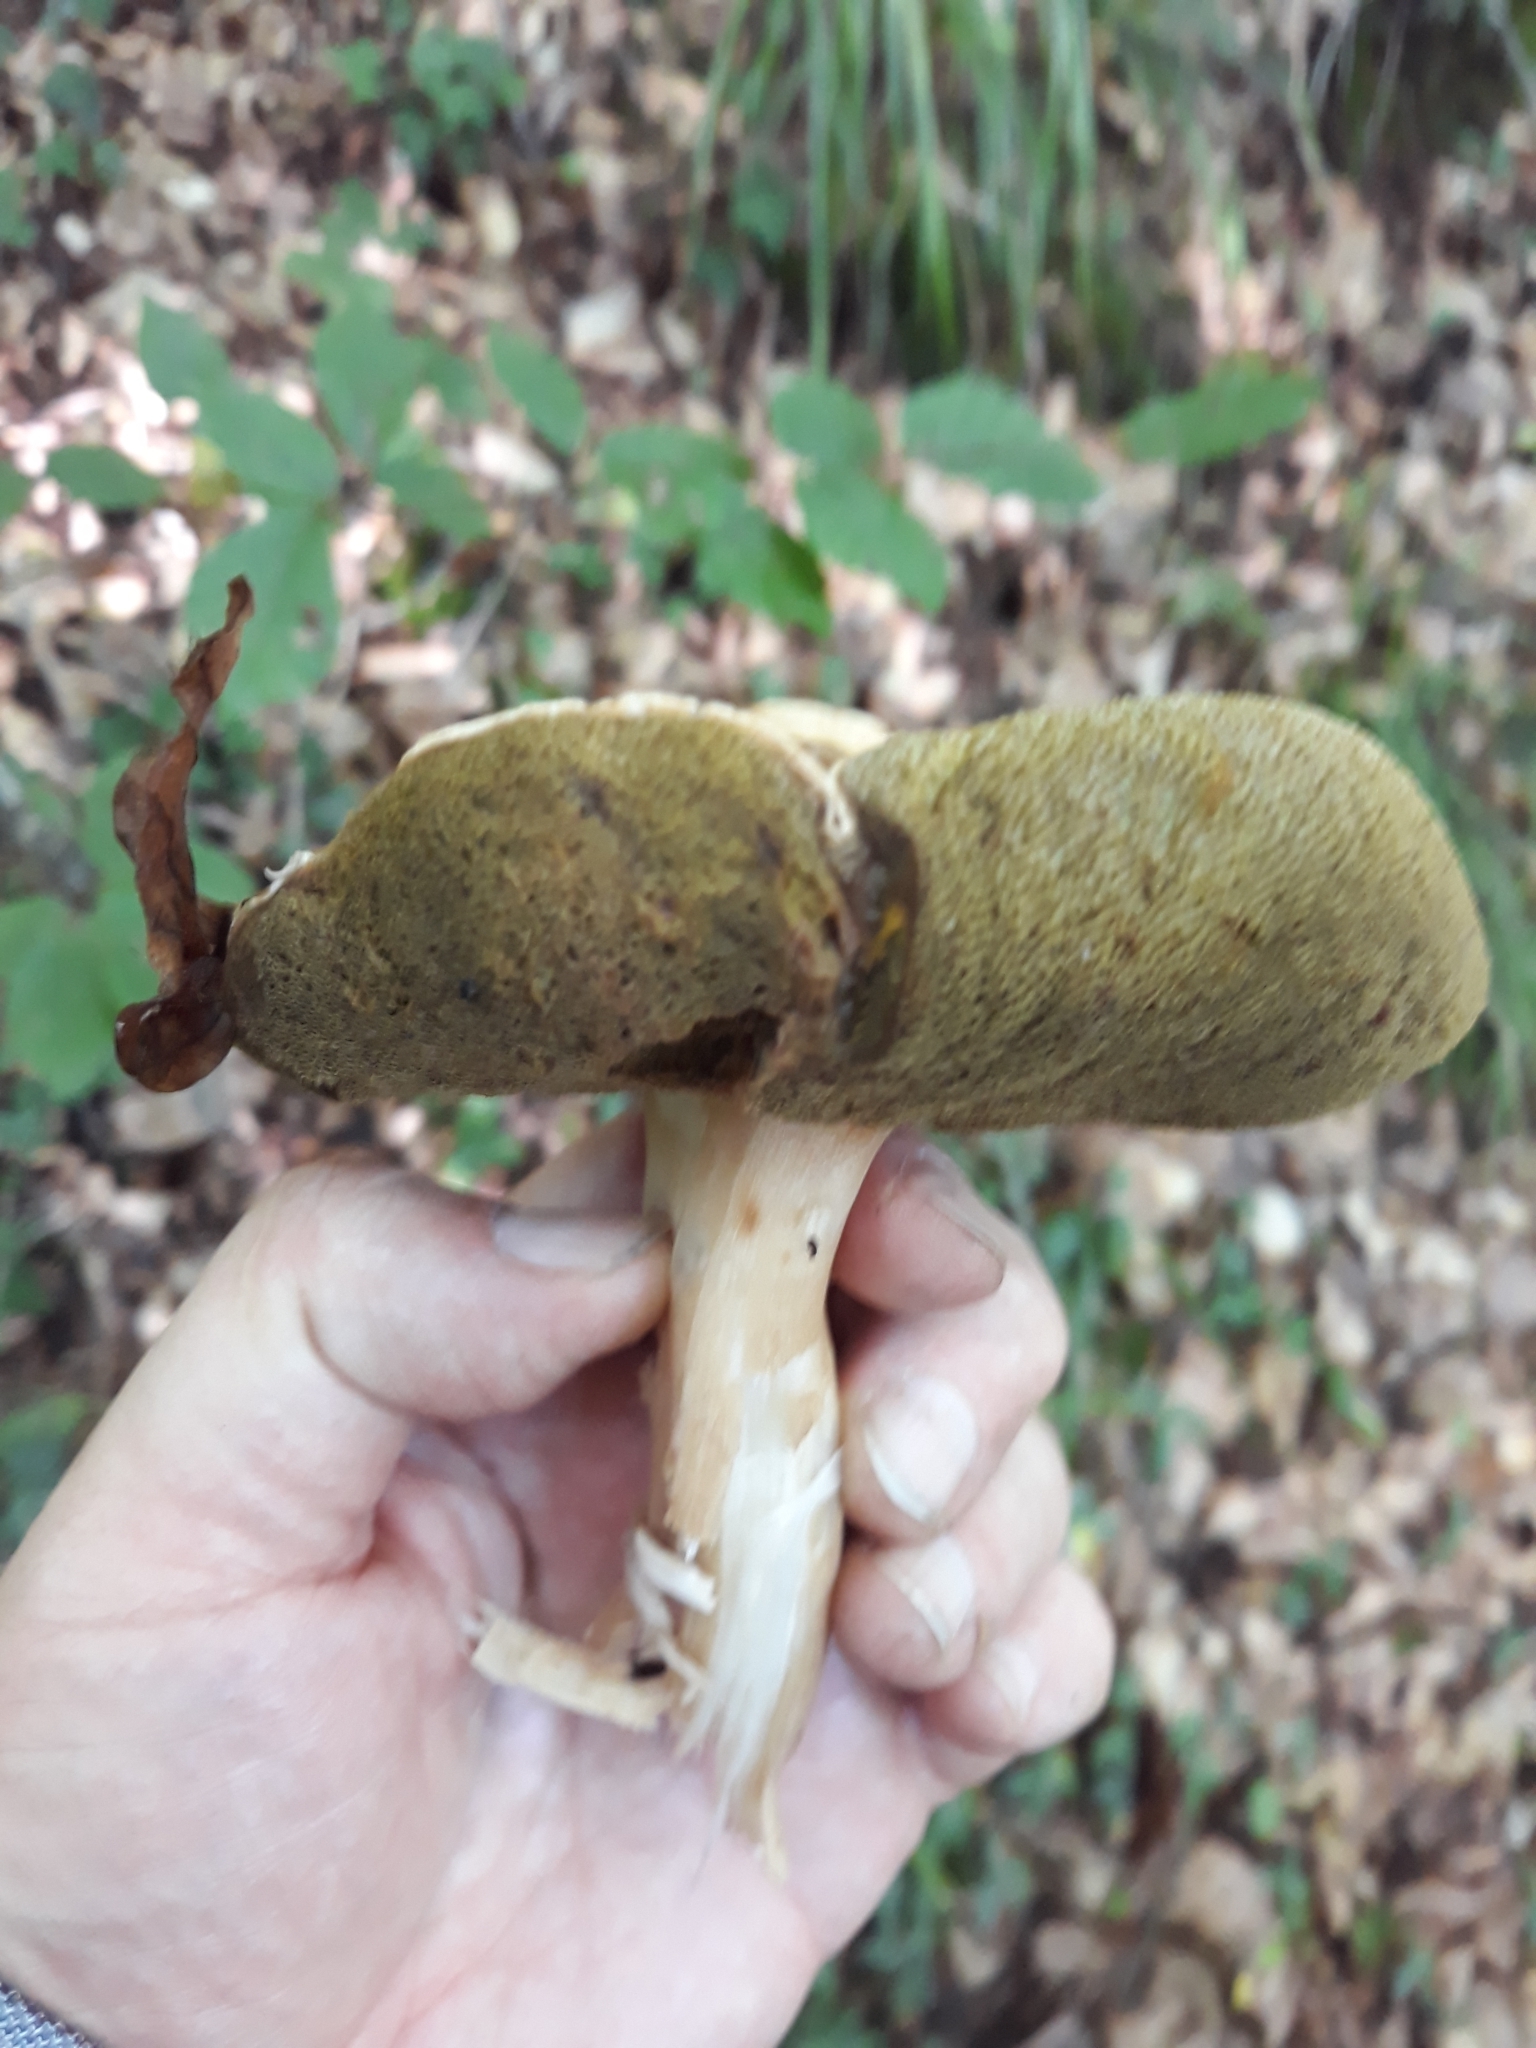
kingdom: Fungi
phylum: Basidiomycota
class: Agaricomycetes
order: Boletales
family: Boletaceae
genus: Boletus
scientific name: Boletus edulis
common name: Cep
